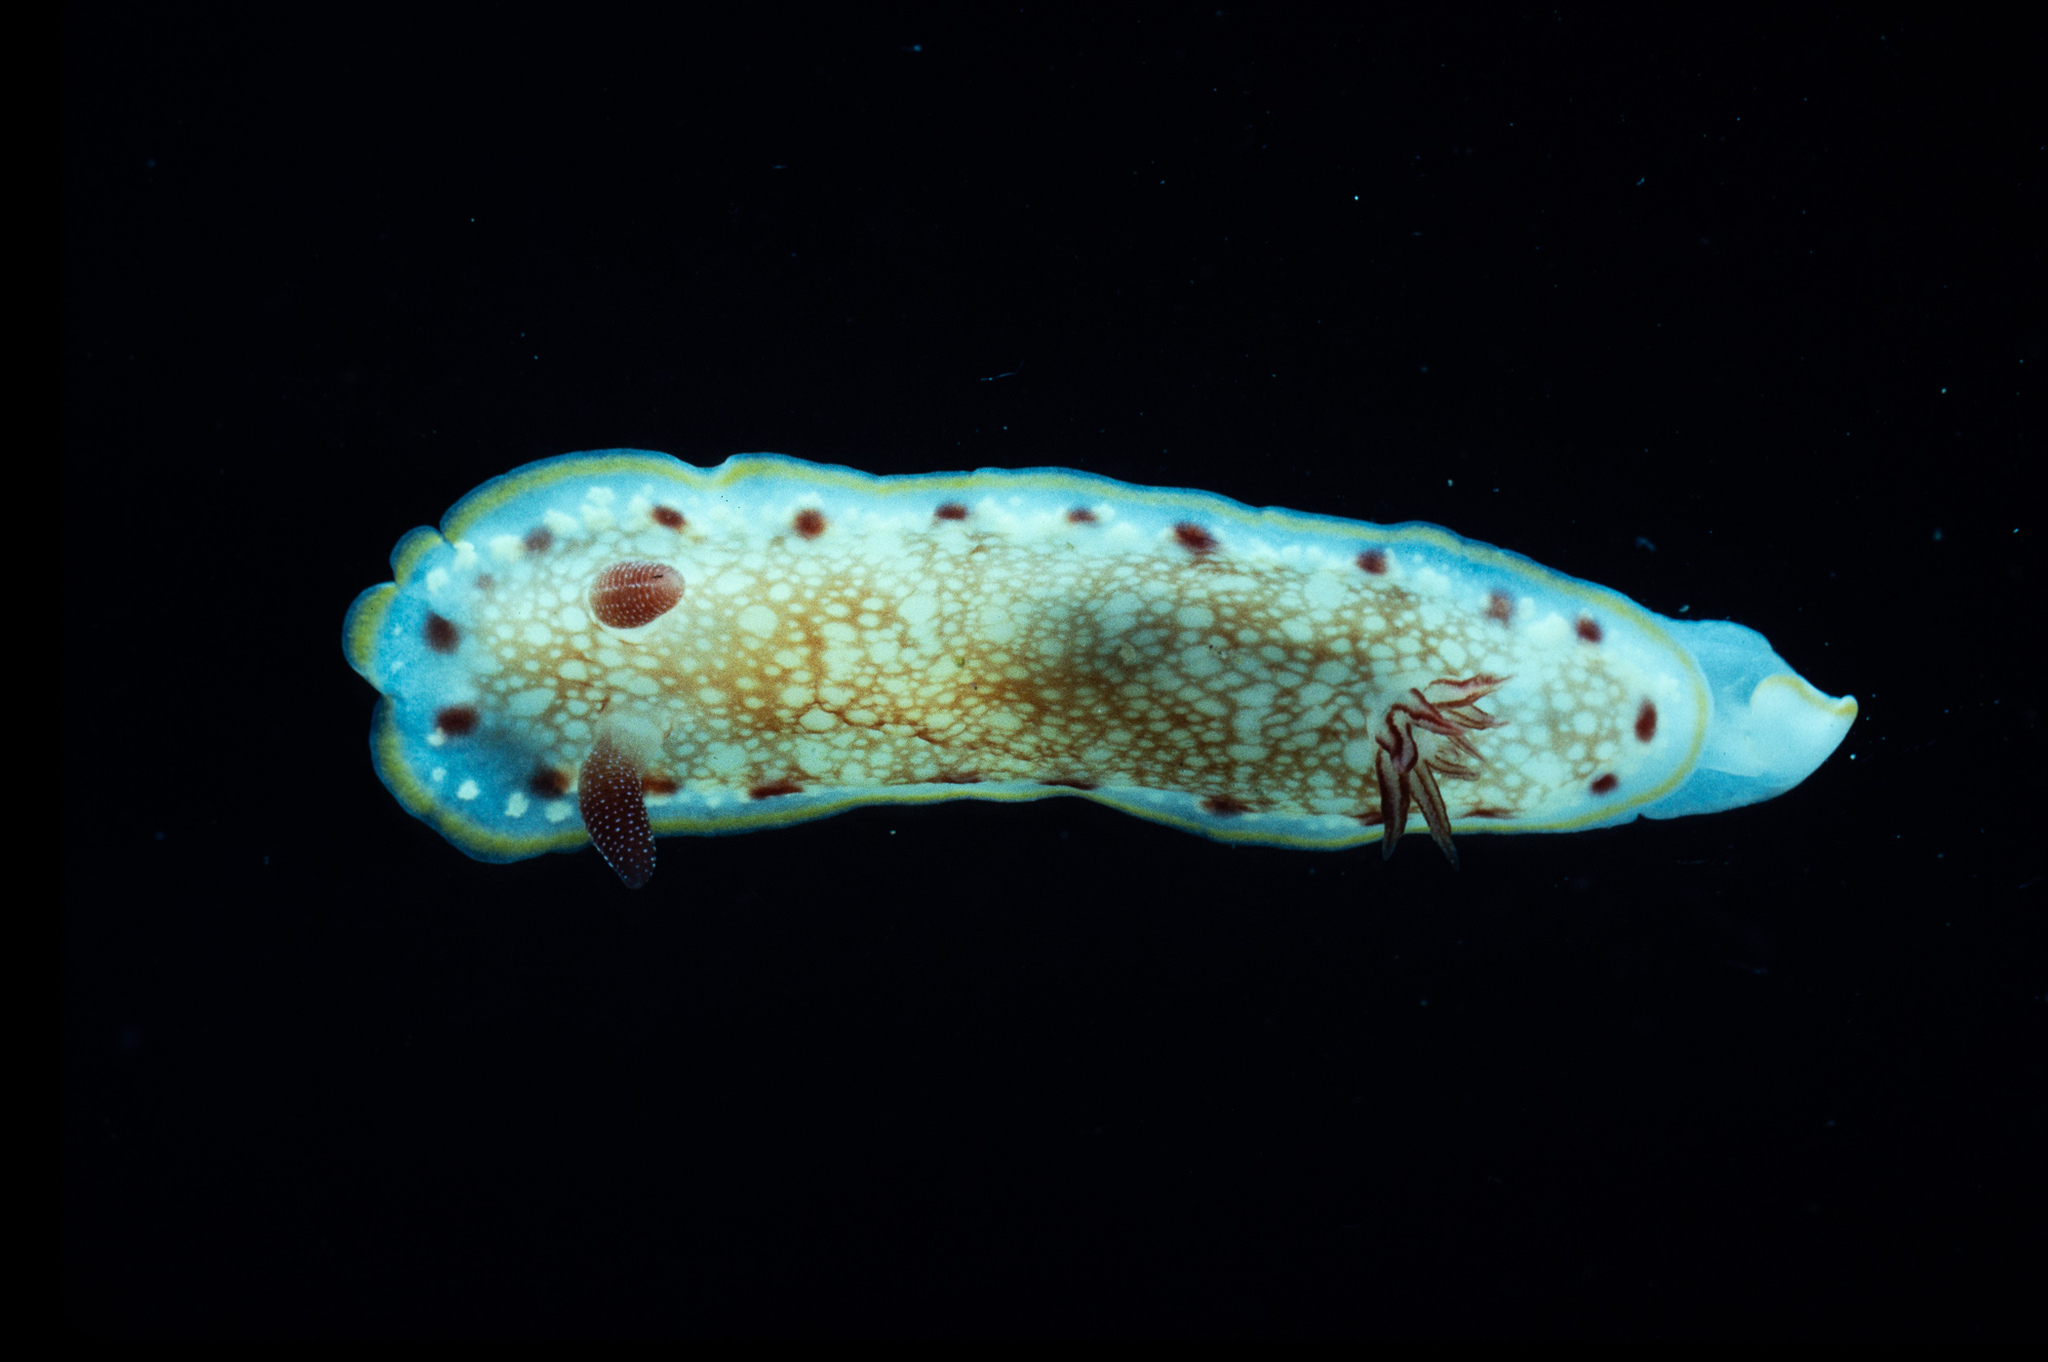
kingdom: Animalia
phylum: Mollusca
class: Gastropoda
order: Nudibranchia
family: Chromodorididae
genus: Goniobranchus
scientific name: Goniobranchus alderi
